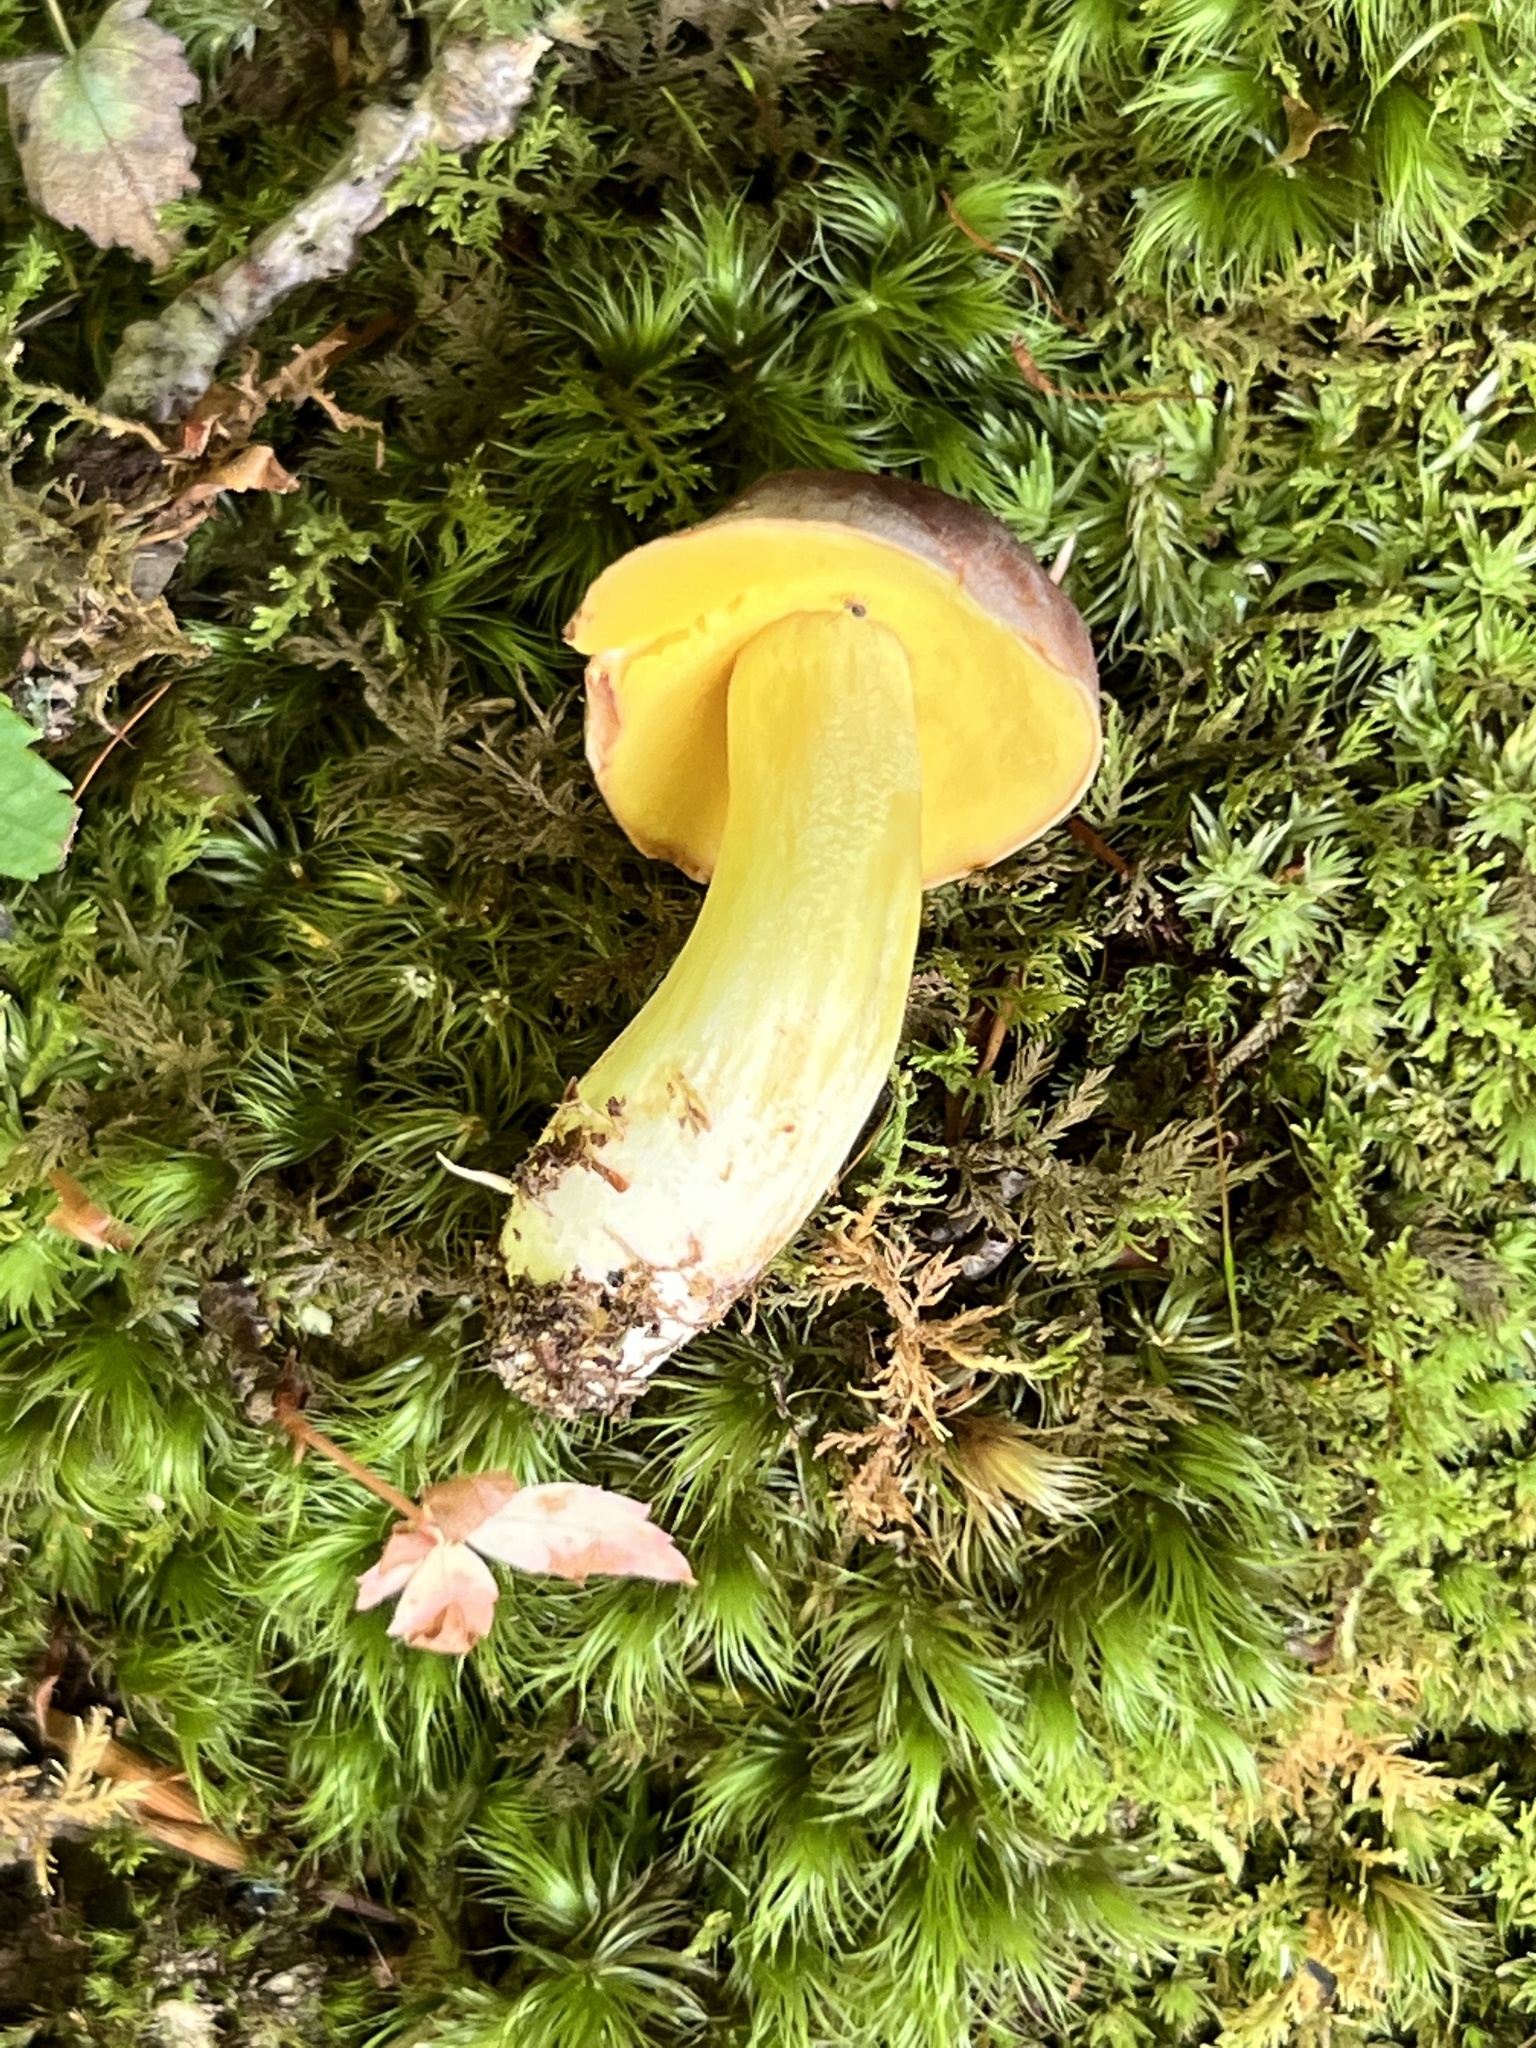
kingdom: Fungi
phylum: Basidiomycota
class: Agaricomycetes
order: Boletales
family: Boletaceae
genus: Aureoboletus
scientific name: Aureoboletus auriporus
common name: Sour gold-pored bolete
